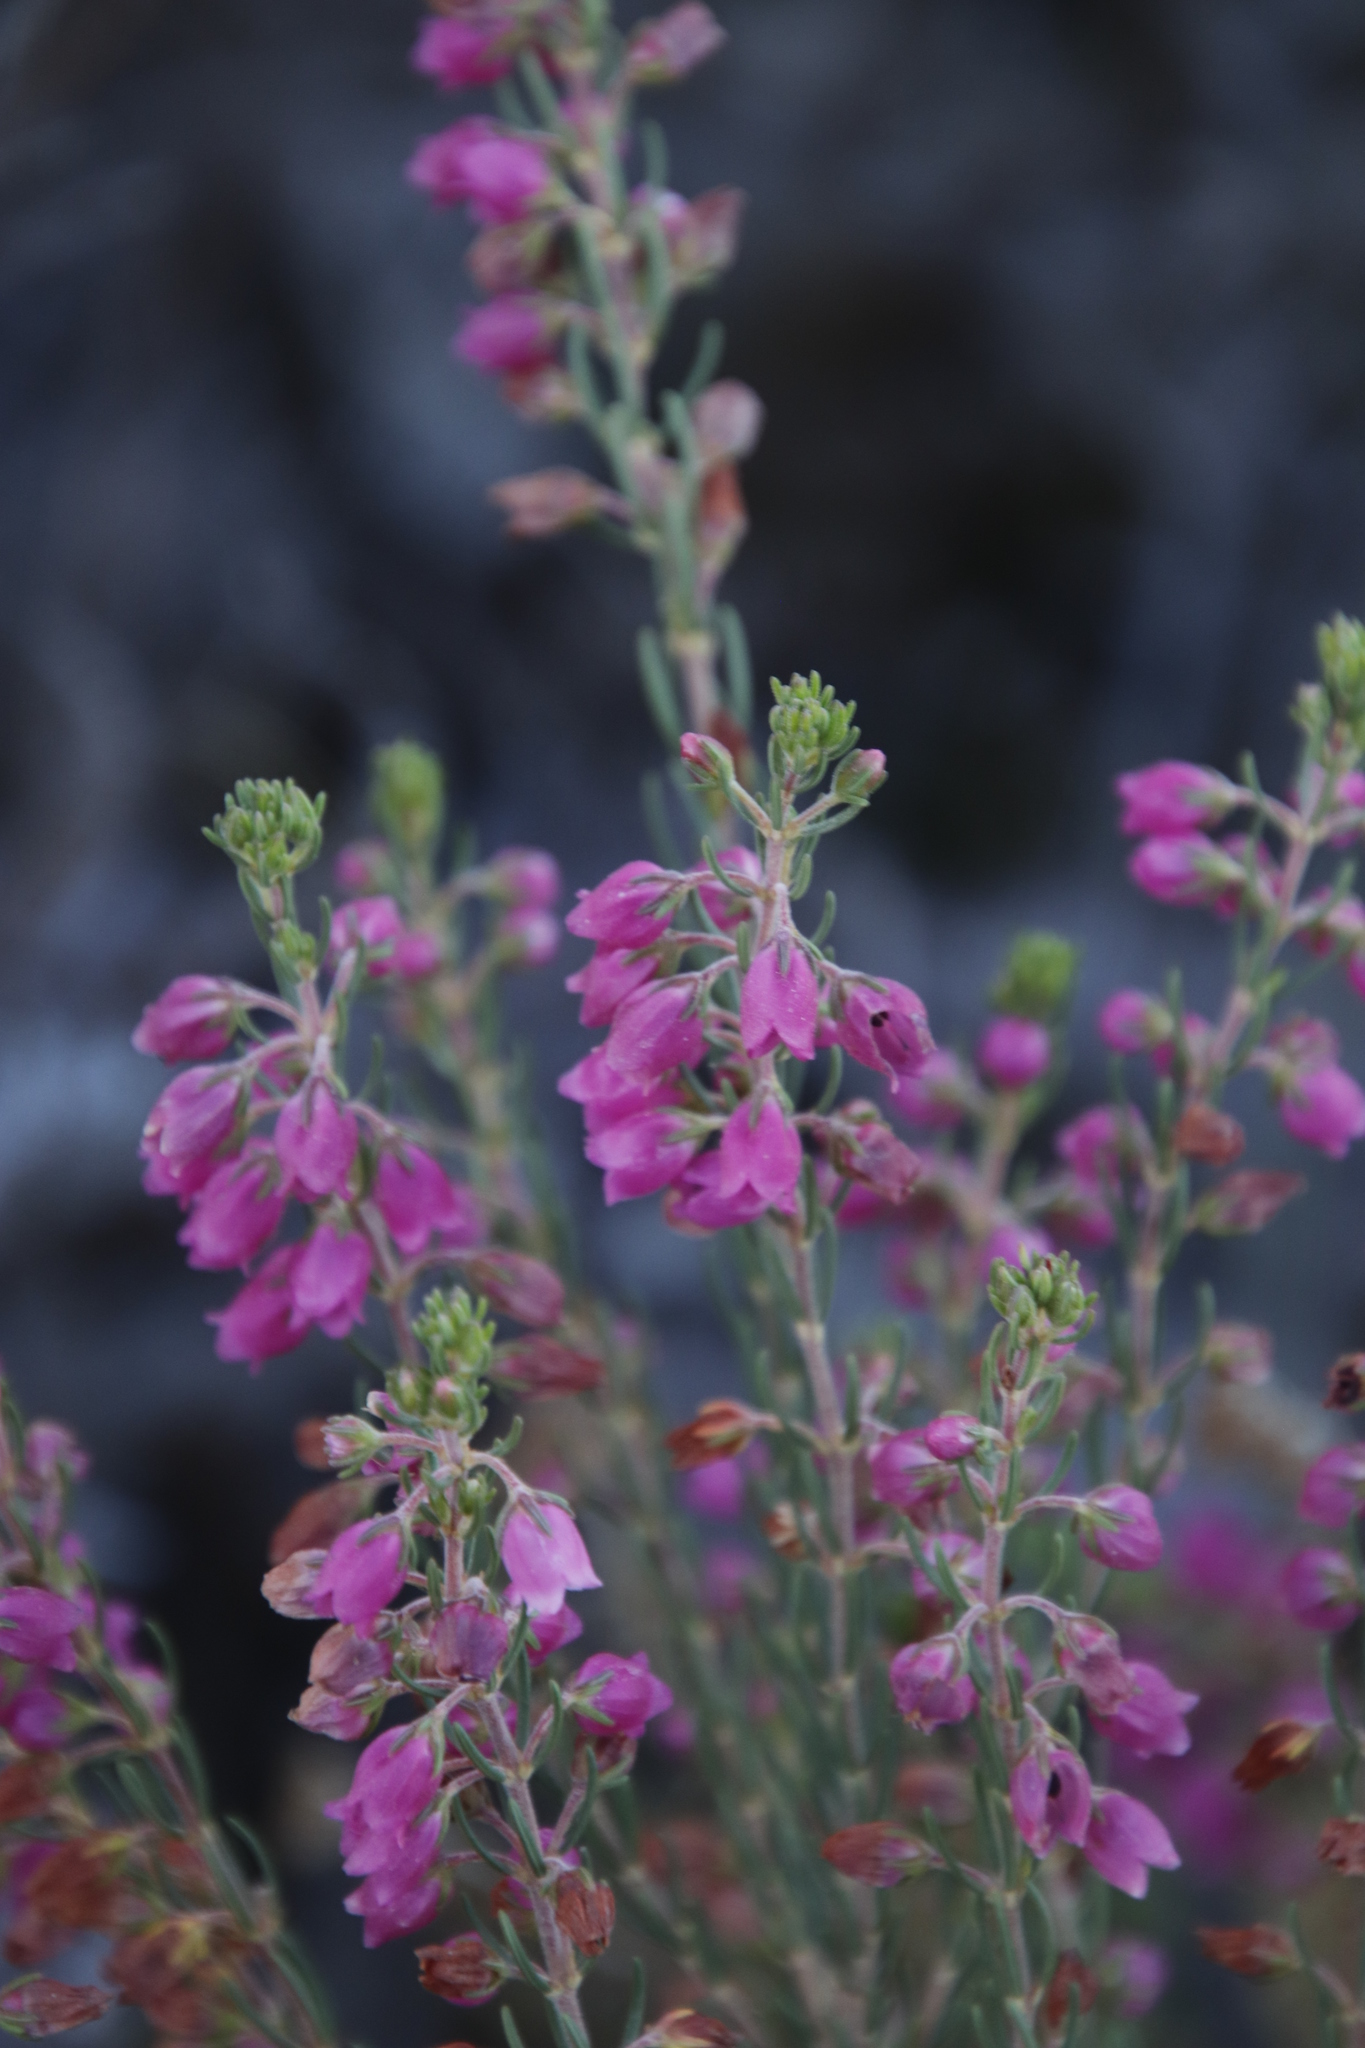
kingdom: Plantae
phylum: Tracheophyta
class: Magnoliopsida
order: Ericales
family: Ericaceae
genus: Erica
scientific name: Erica viscaria
